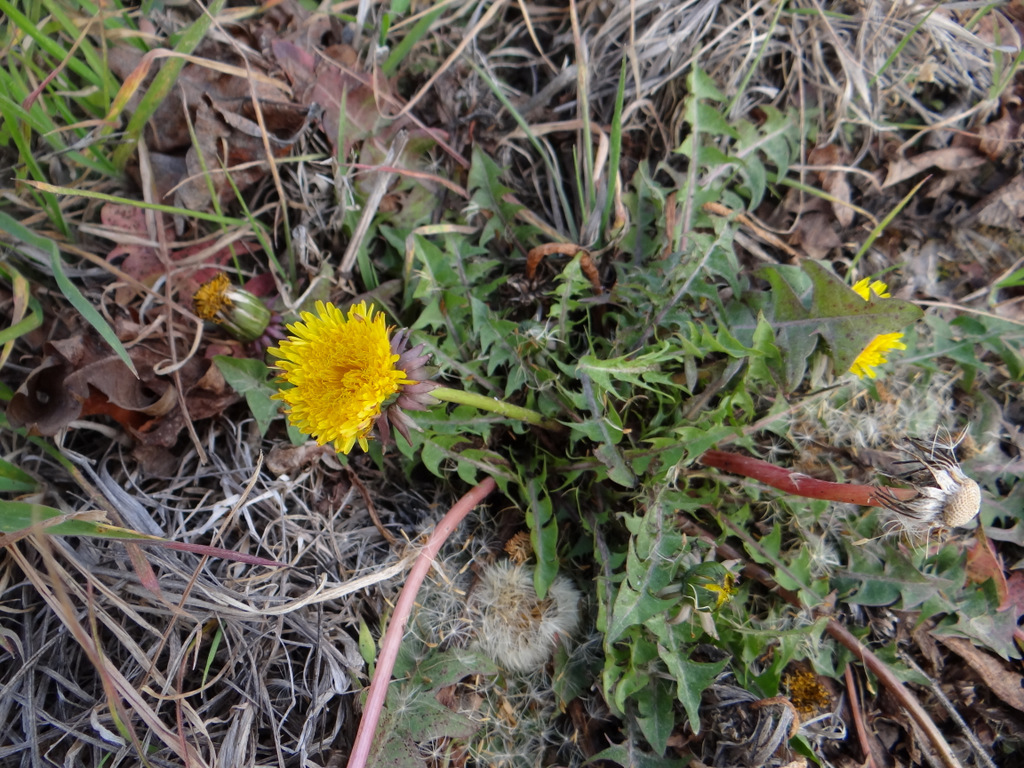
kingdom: Plantae
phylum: Tracheophyta
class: Magnoliopsida
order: Asterales
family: Asteraceae
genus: Taraxacum
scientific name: Taraxacum officinale
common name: Common dandelion
